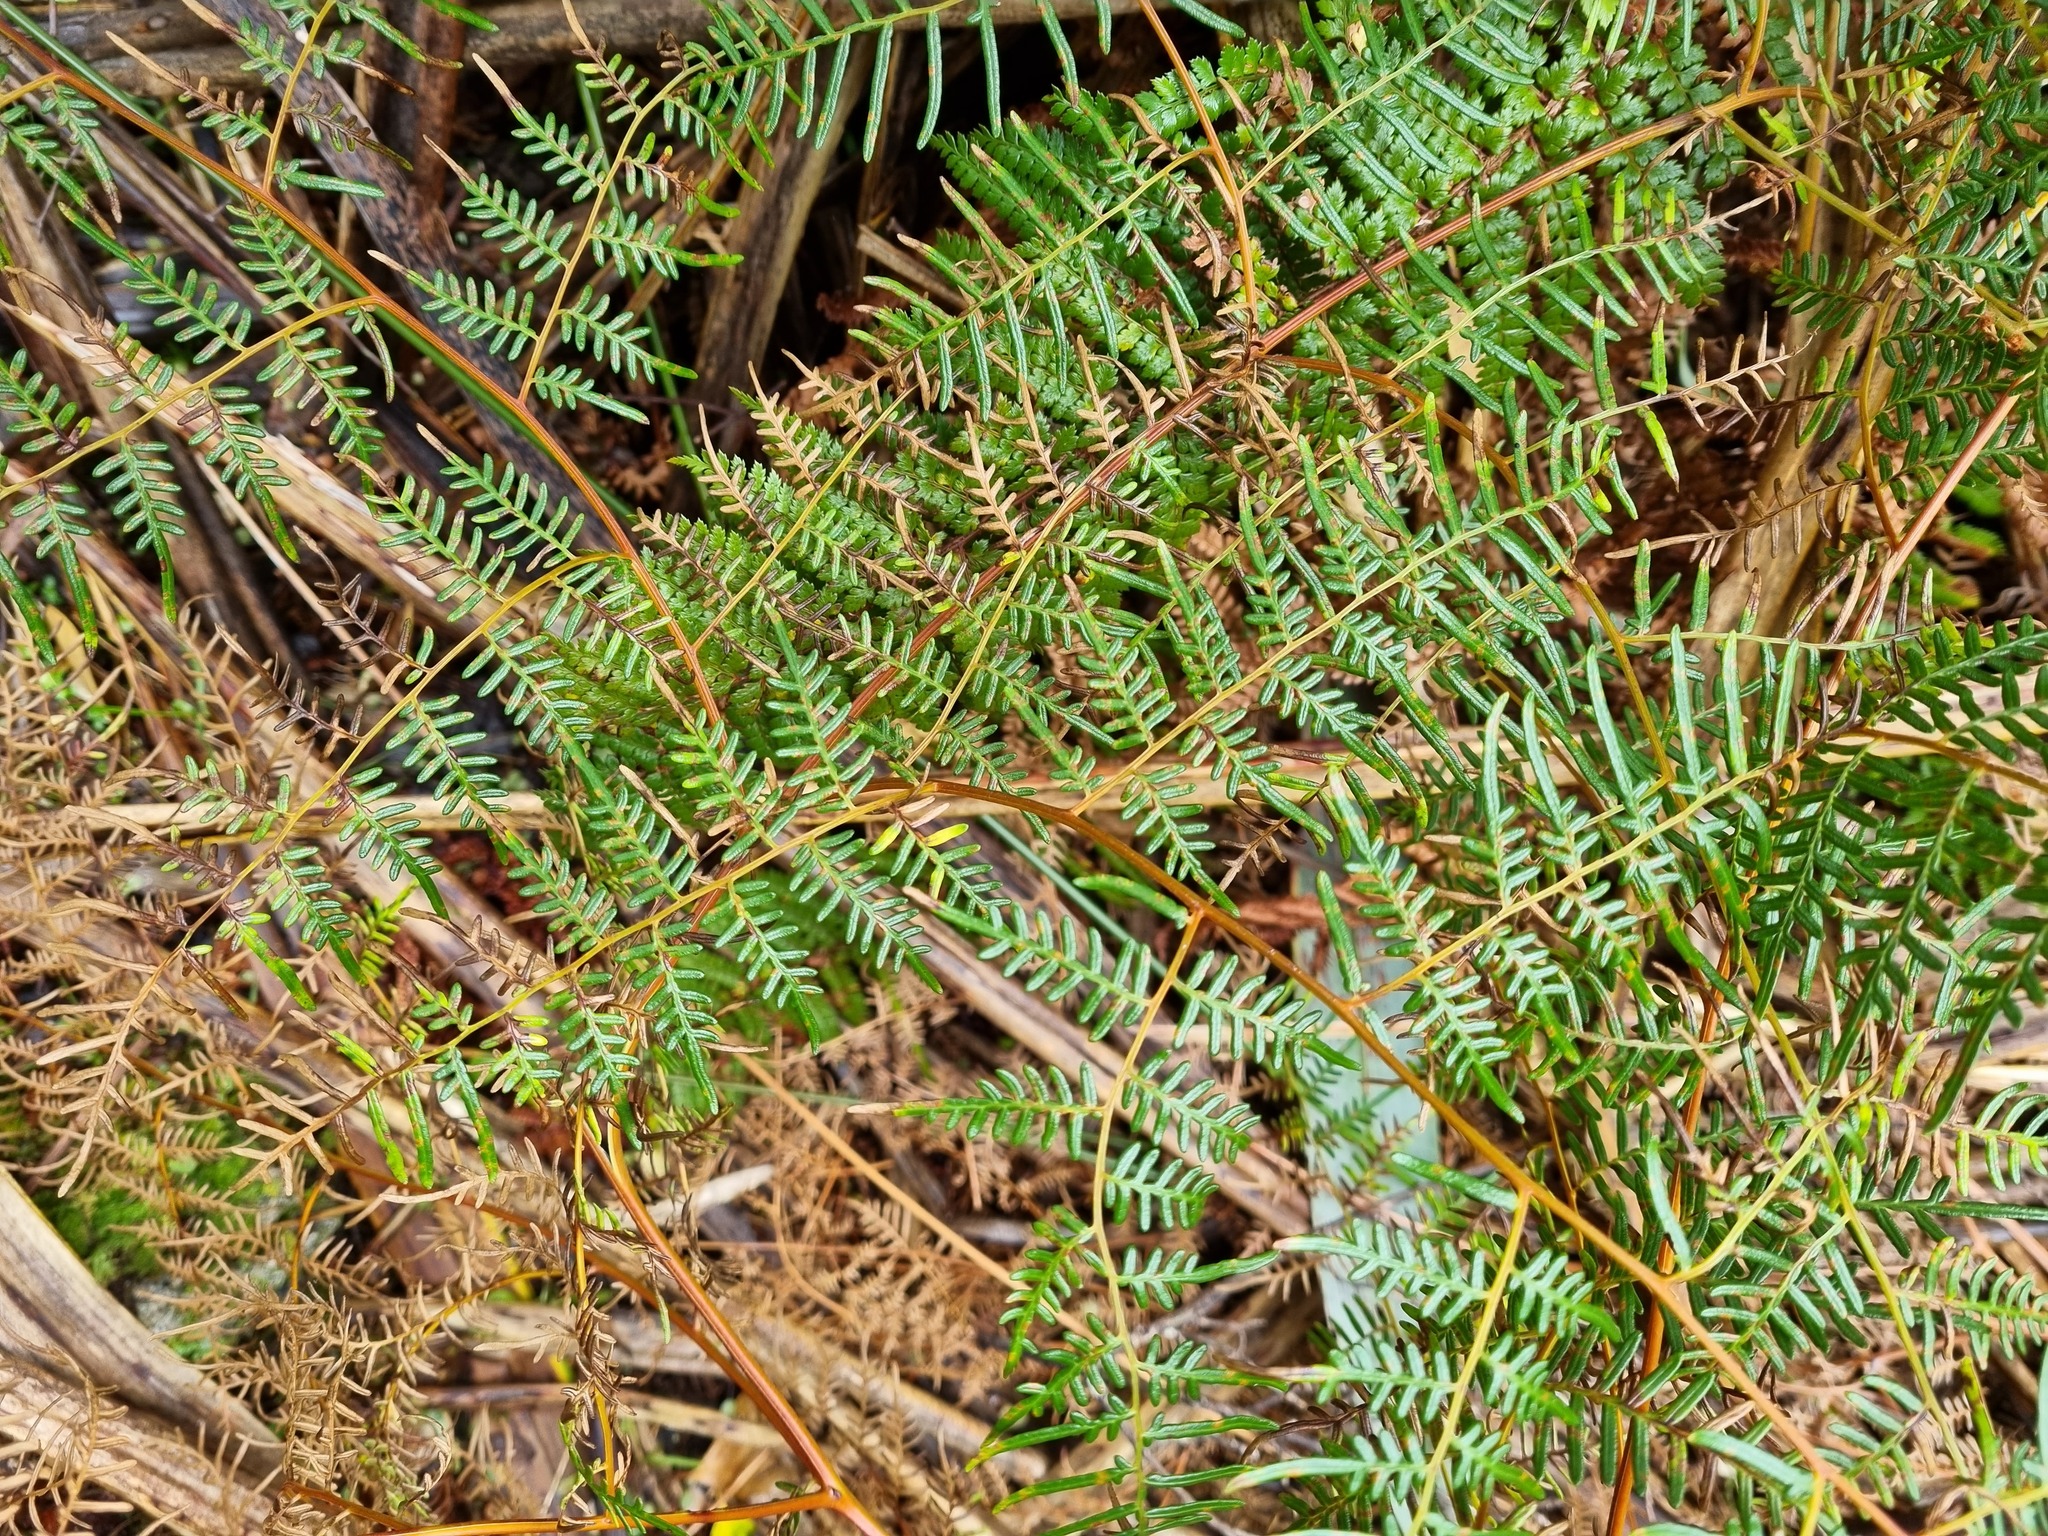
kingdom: Plantae
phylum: Tracheophyta
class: Polypodiopsida
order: Polypodiales
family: Dennstaedtiaceae
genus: Pteridium
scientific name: Pteridium esculentum
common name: Bracken fern
